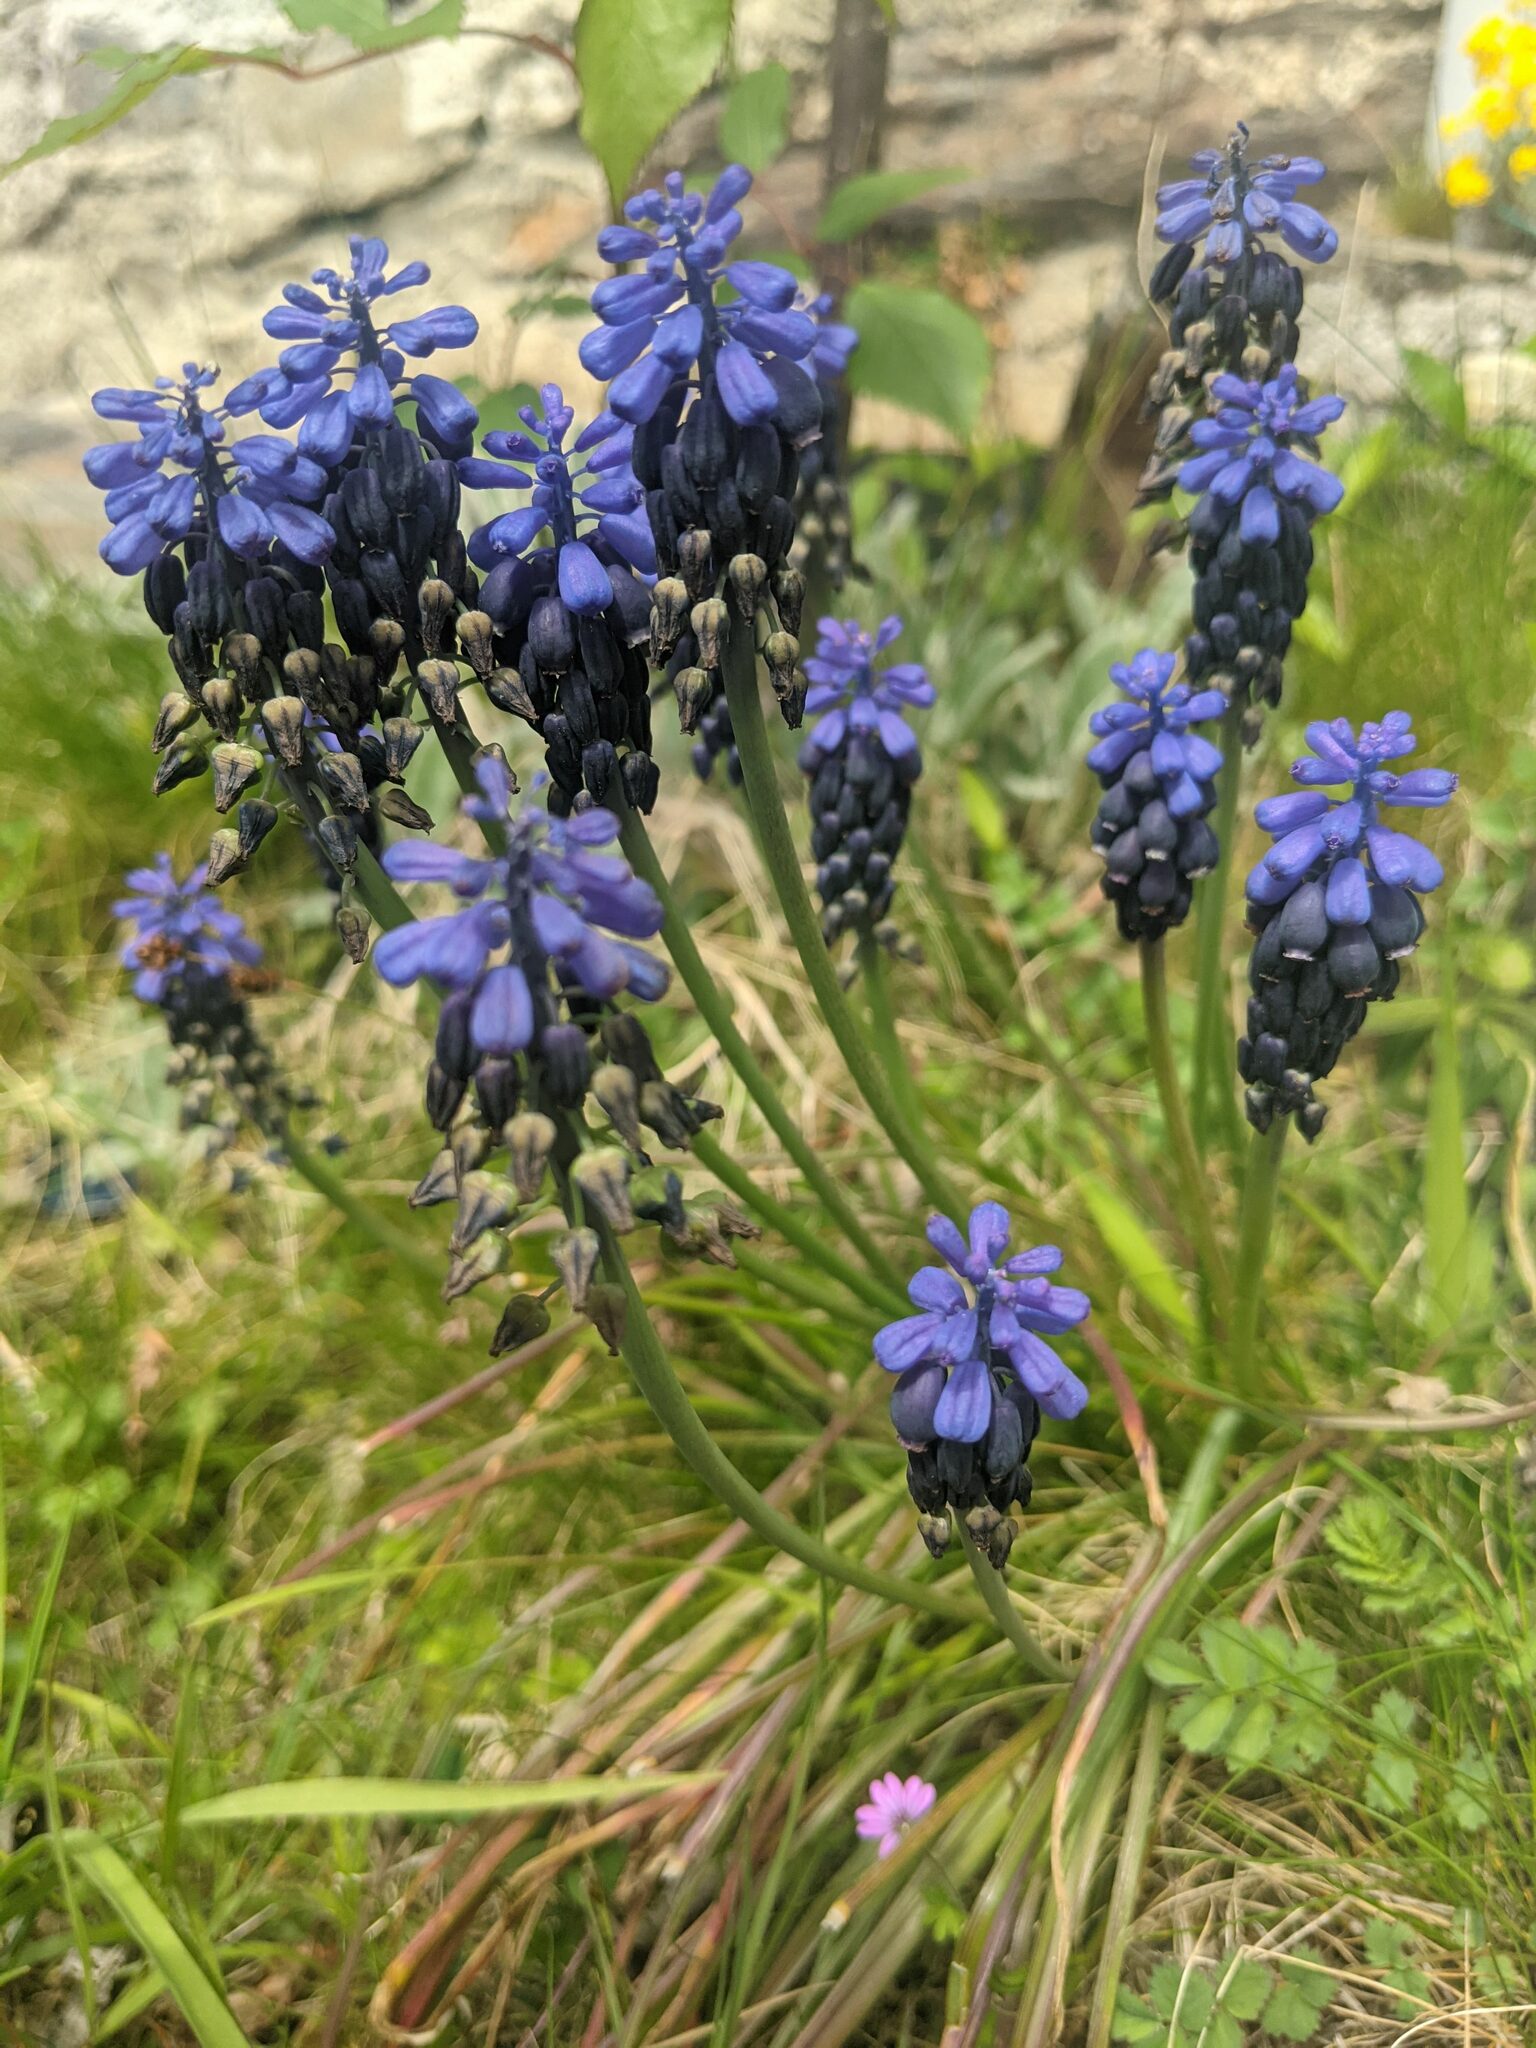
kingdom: Plantae
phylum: Tracheophyta
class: Liliopsida
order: Asparagales
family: Asparagaceae
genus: Muscari
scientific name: Muscari neglectum
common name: Grape-hyacinth
